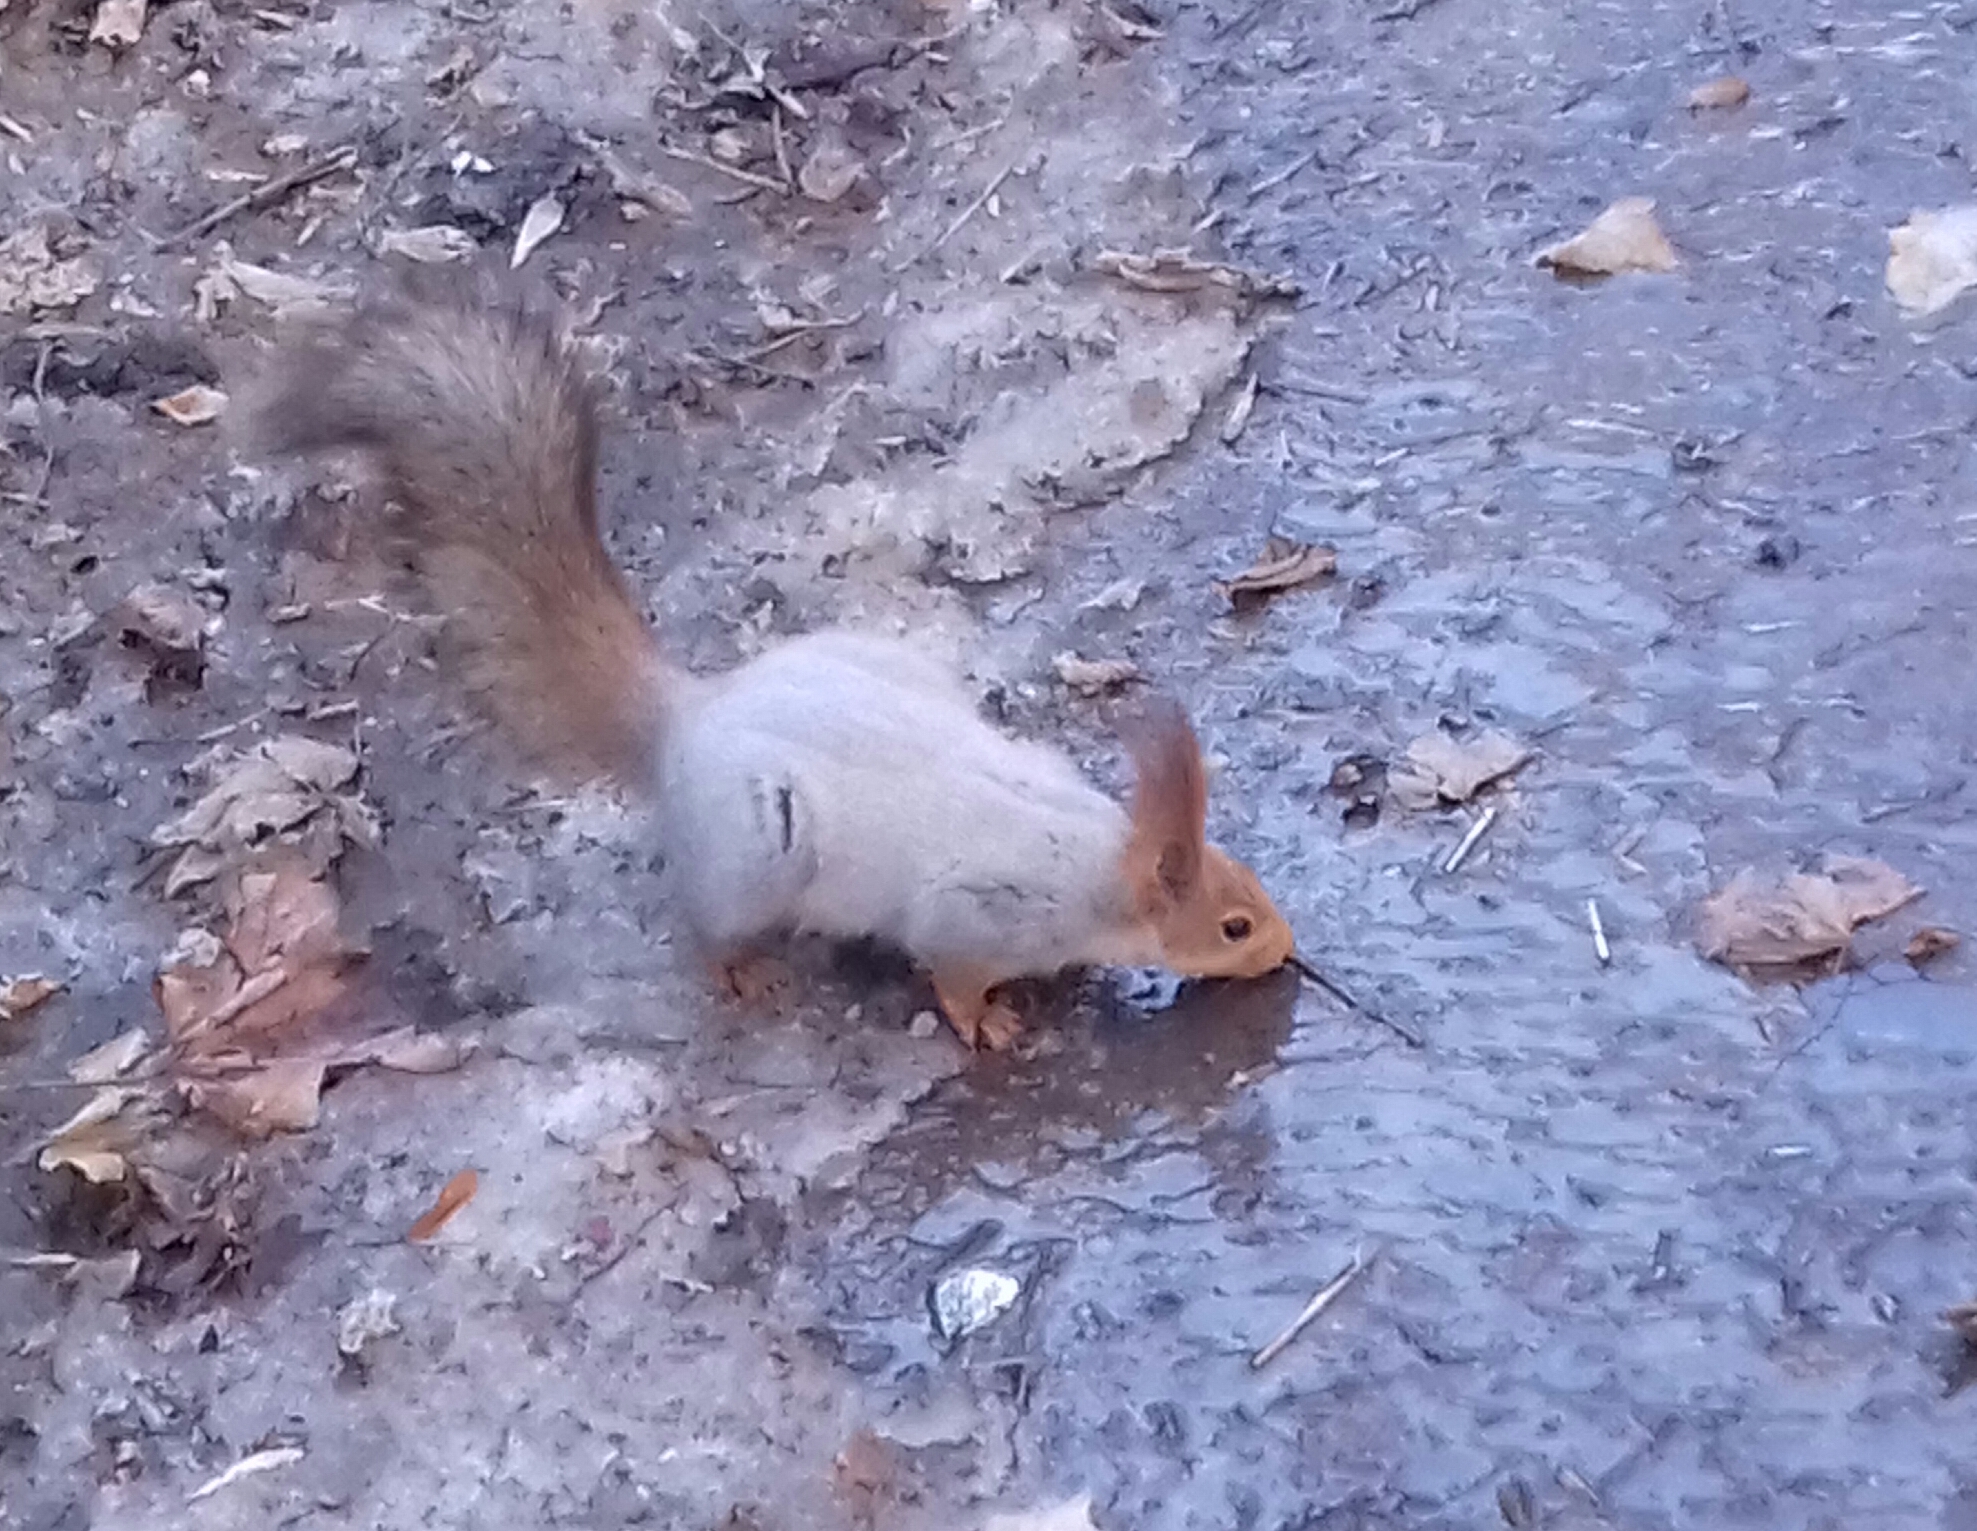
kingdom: Animalia
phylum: Chordata
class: Mammalia
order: Rodentia
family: Sciuridae
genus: Sciurus
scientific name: Sciurus vulgaris
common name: Eurasian red squirrel
